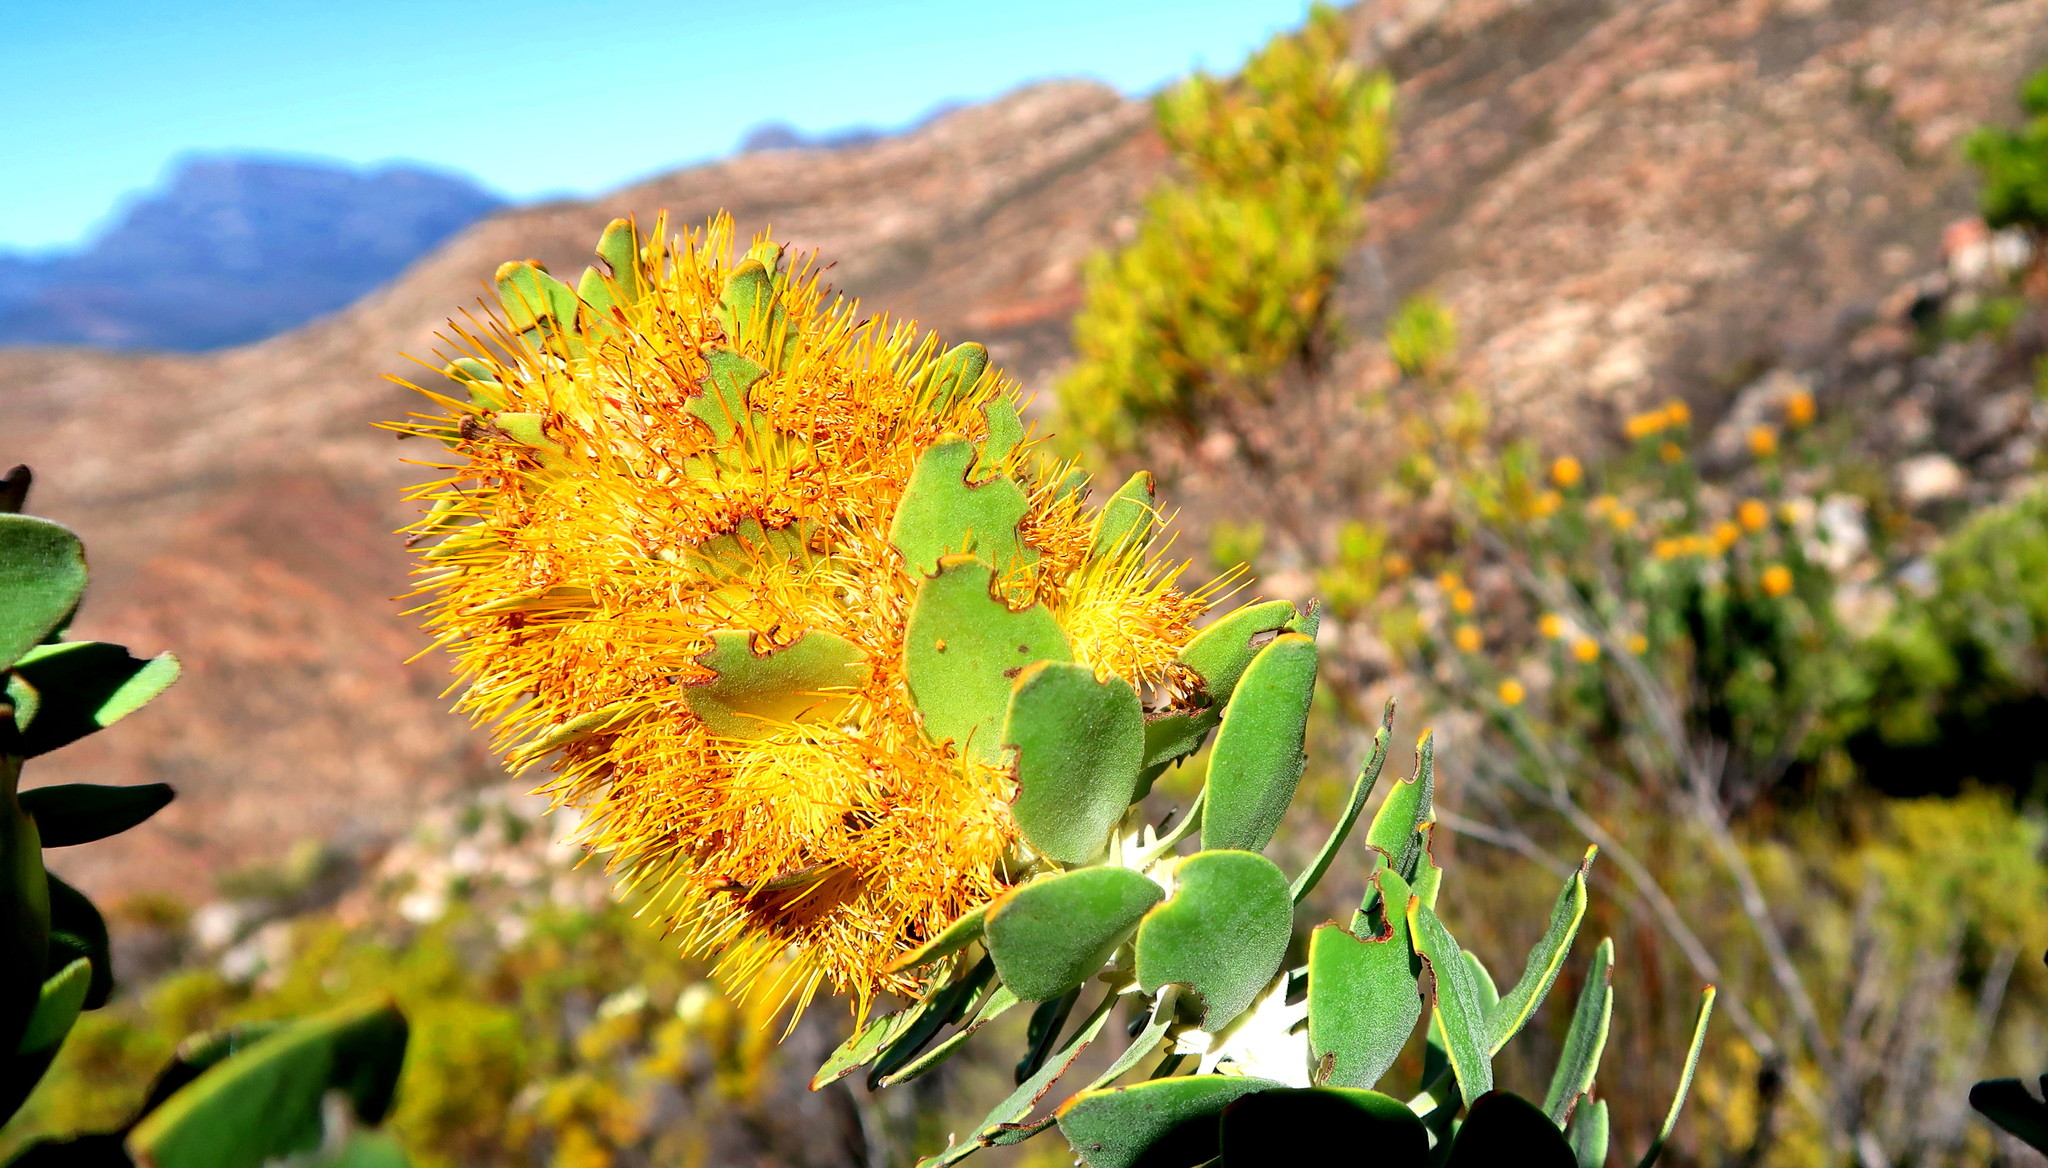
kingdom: Plantae
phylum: Tracheophyta
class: Magnoliopsida
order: Proteales
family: Proteaceae
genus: Mimetes
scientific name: Mimetes chrysanthus
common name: Golden pagoda
